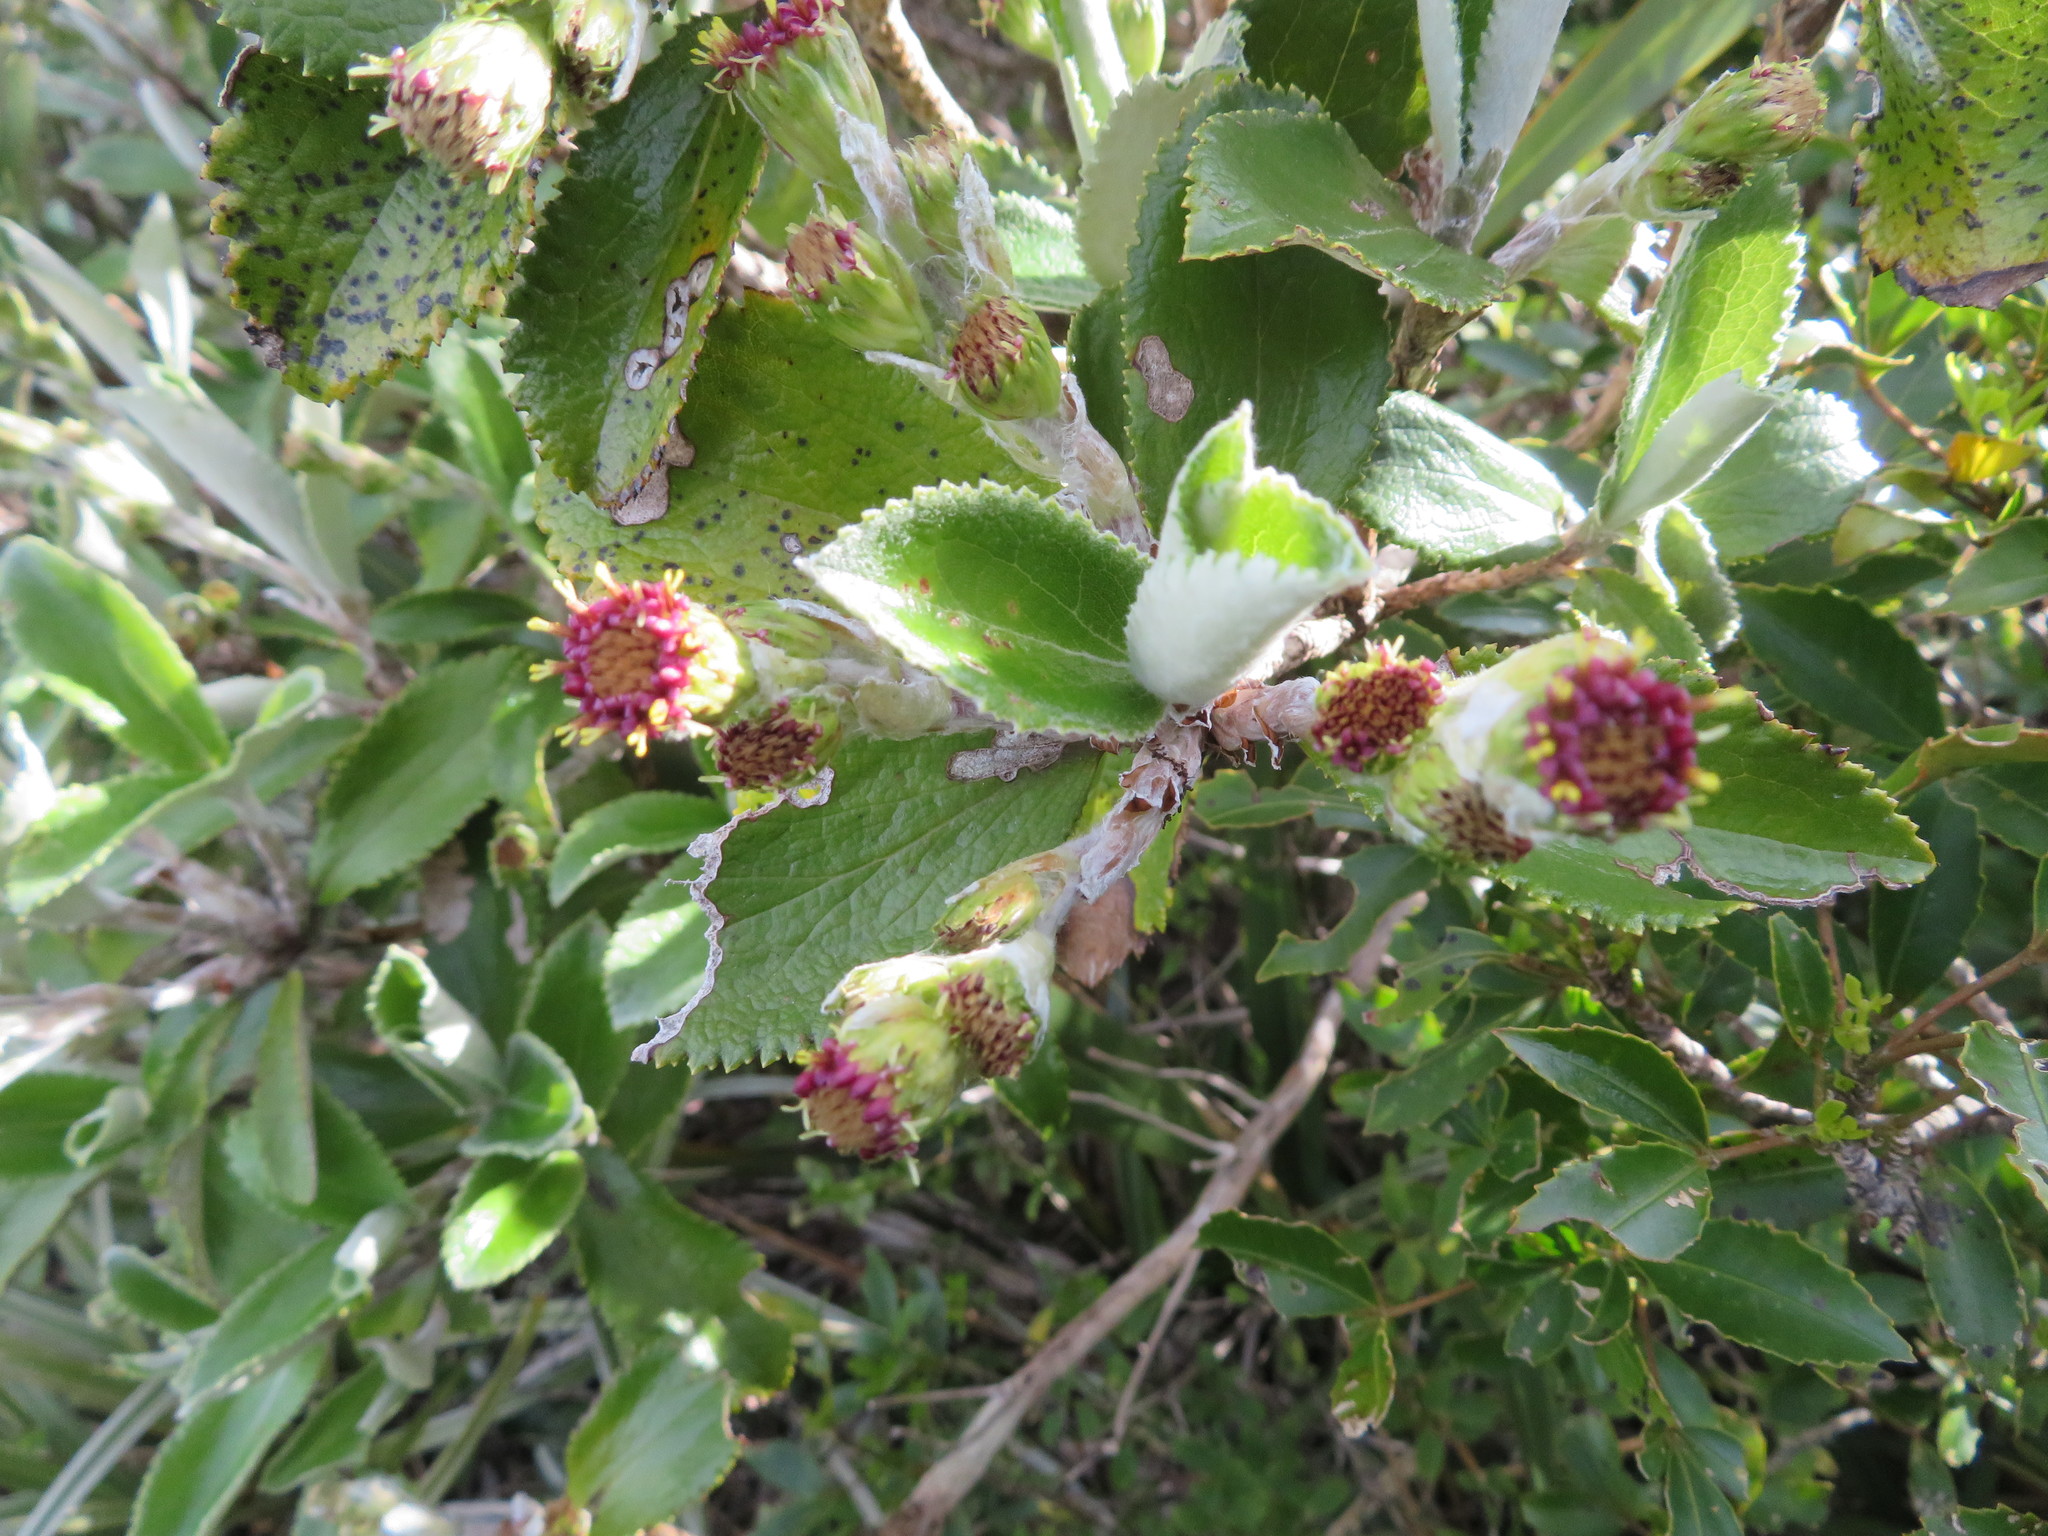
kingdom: Plantae
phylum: Tracheophyta
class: Magnoliopsida
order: Asterales
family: Asteraceae
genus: Macrolearia
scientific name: Macrolearia colensoi
